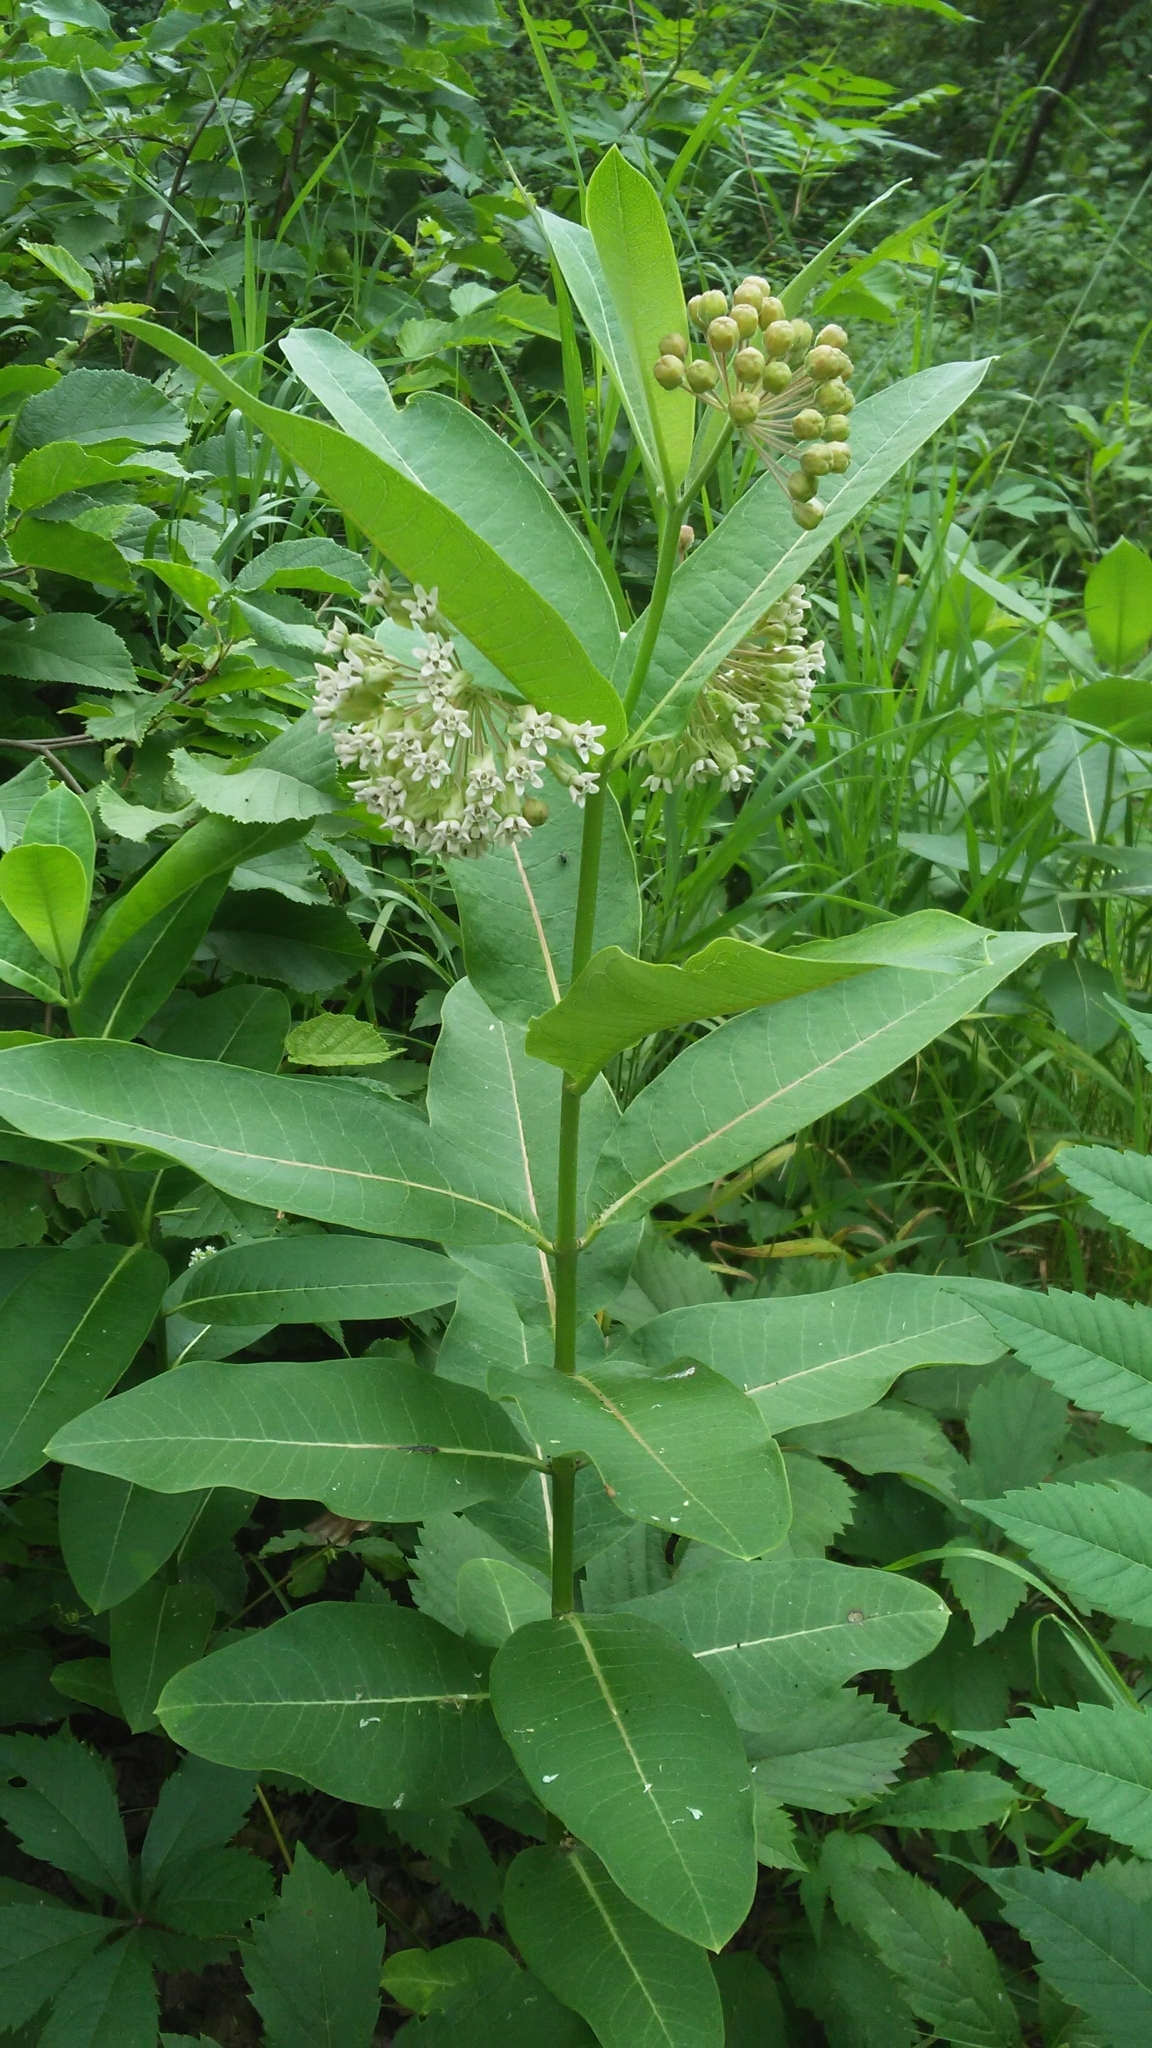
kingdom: Plantae
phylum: Tracheophyta
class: Magnoliopsida
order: Gentianales
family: Apocynaceae
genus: Asclepias
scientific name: Asclepias syriaca
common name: Common milkweed
